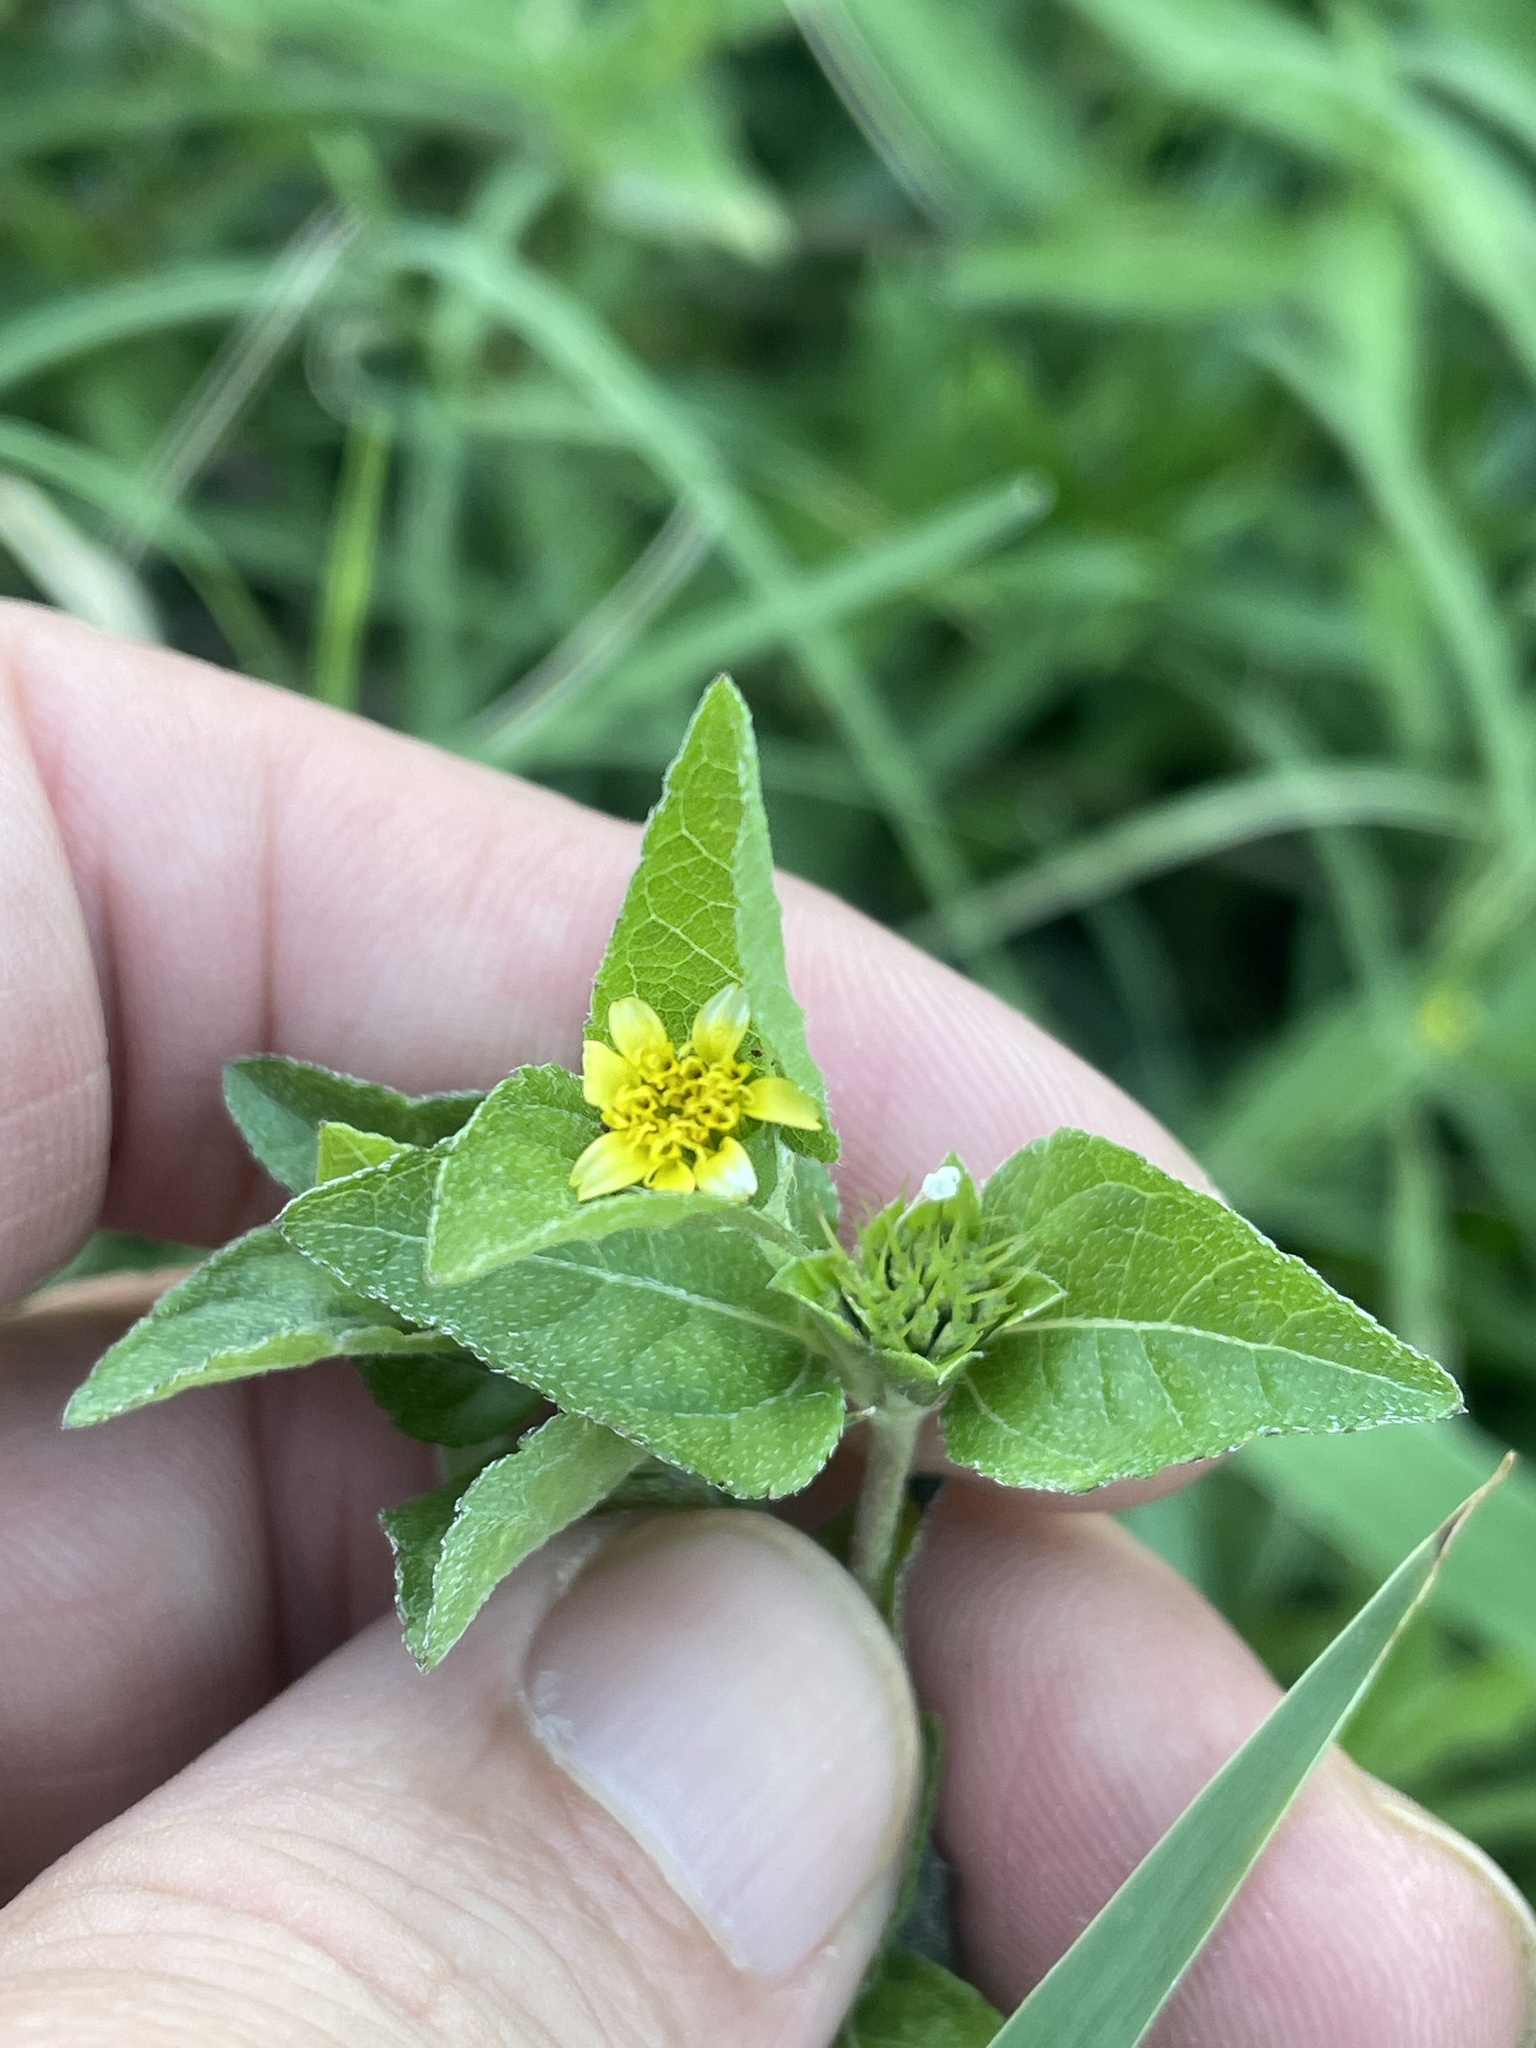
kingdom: Plantae
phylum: Tracheophyta
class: Magnoliopsida
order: Asterales
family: Asteraceae
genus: Calyptocarpus
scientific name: Calyptocarpus vialis
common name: Straggler daisy
